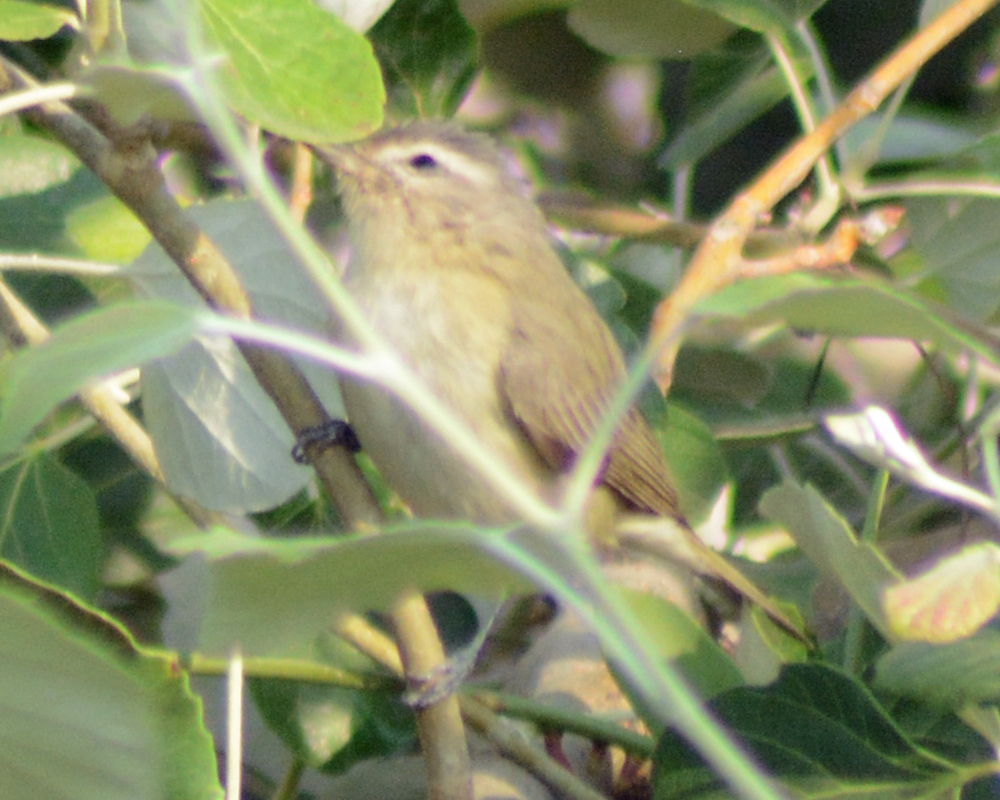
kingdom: Animalia
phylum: Chordata
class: Aves
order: Passeriformes
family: Vireonidae
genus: Vireo
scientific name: Vireo gilvus
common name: Warbling vireo
